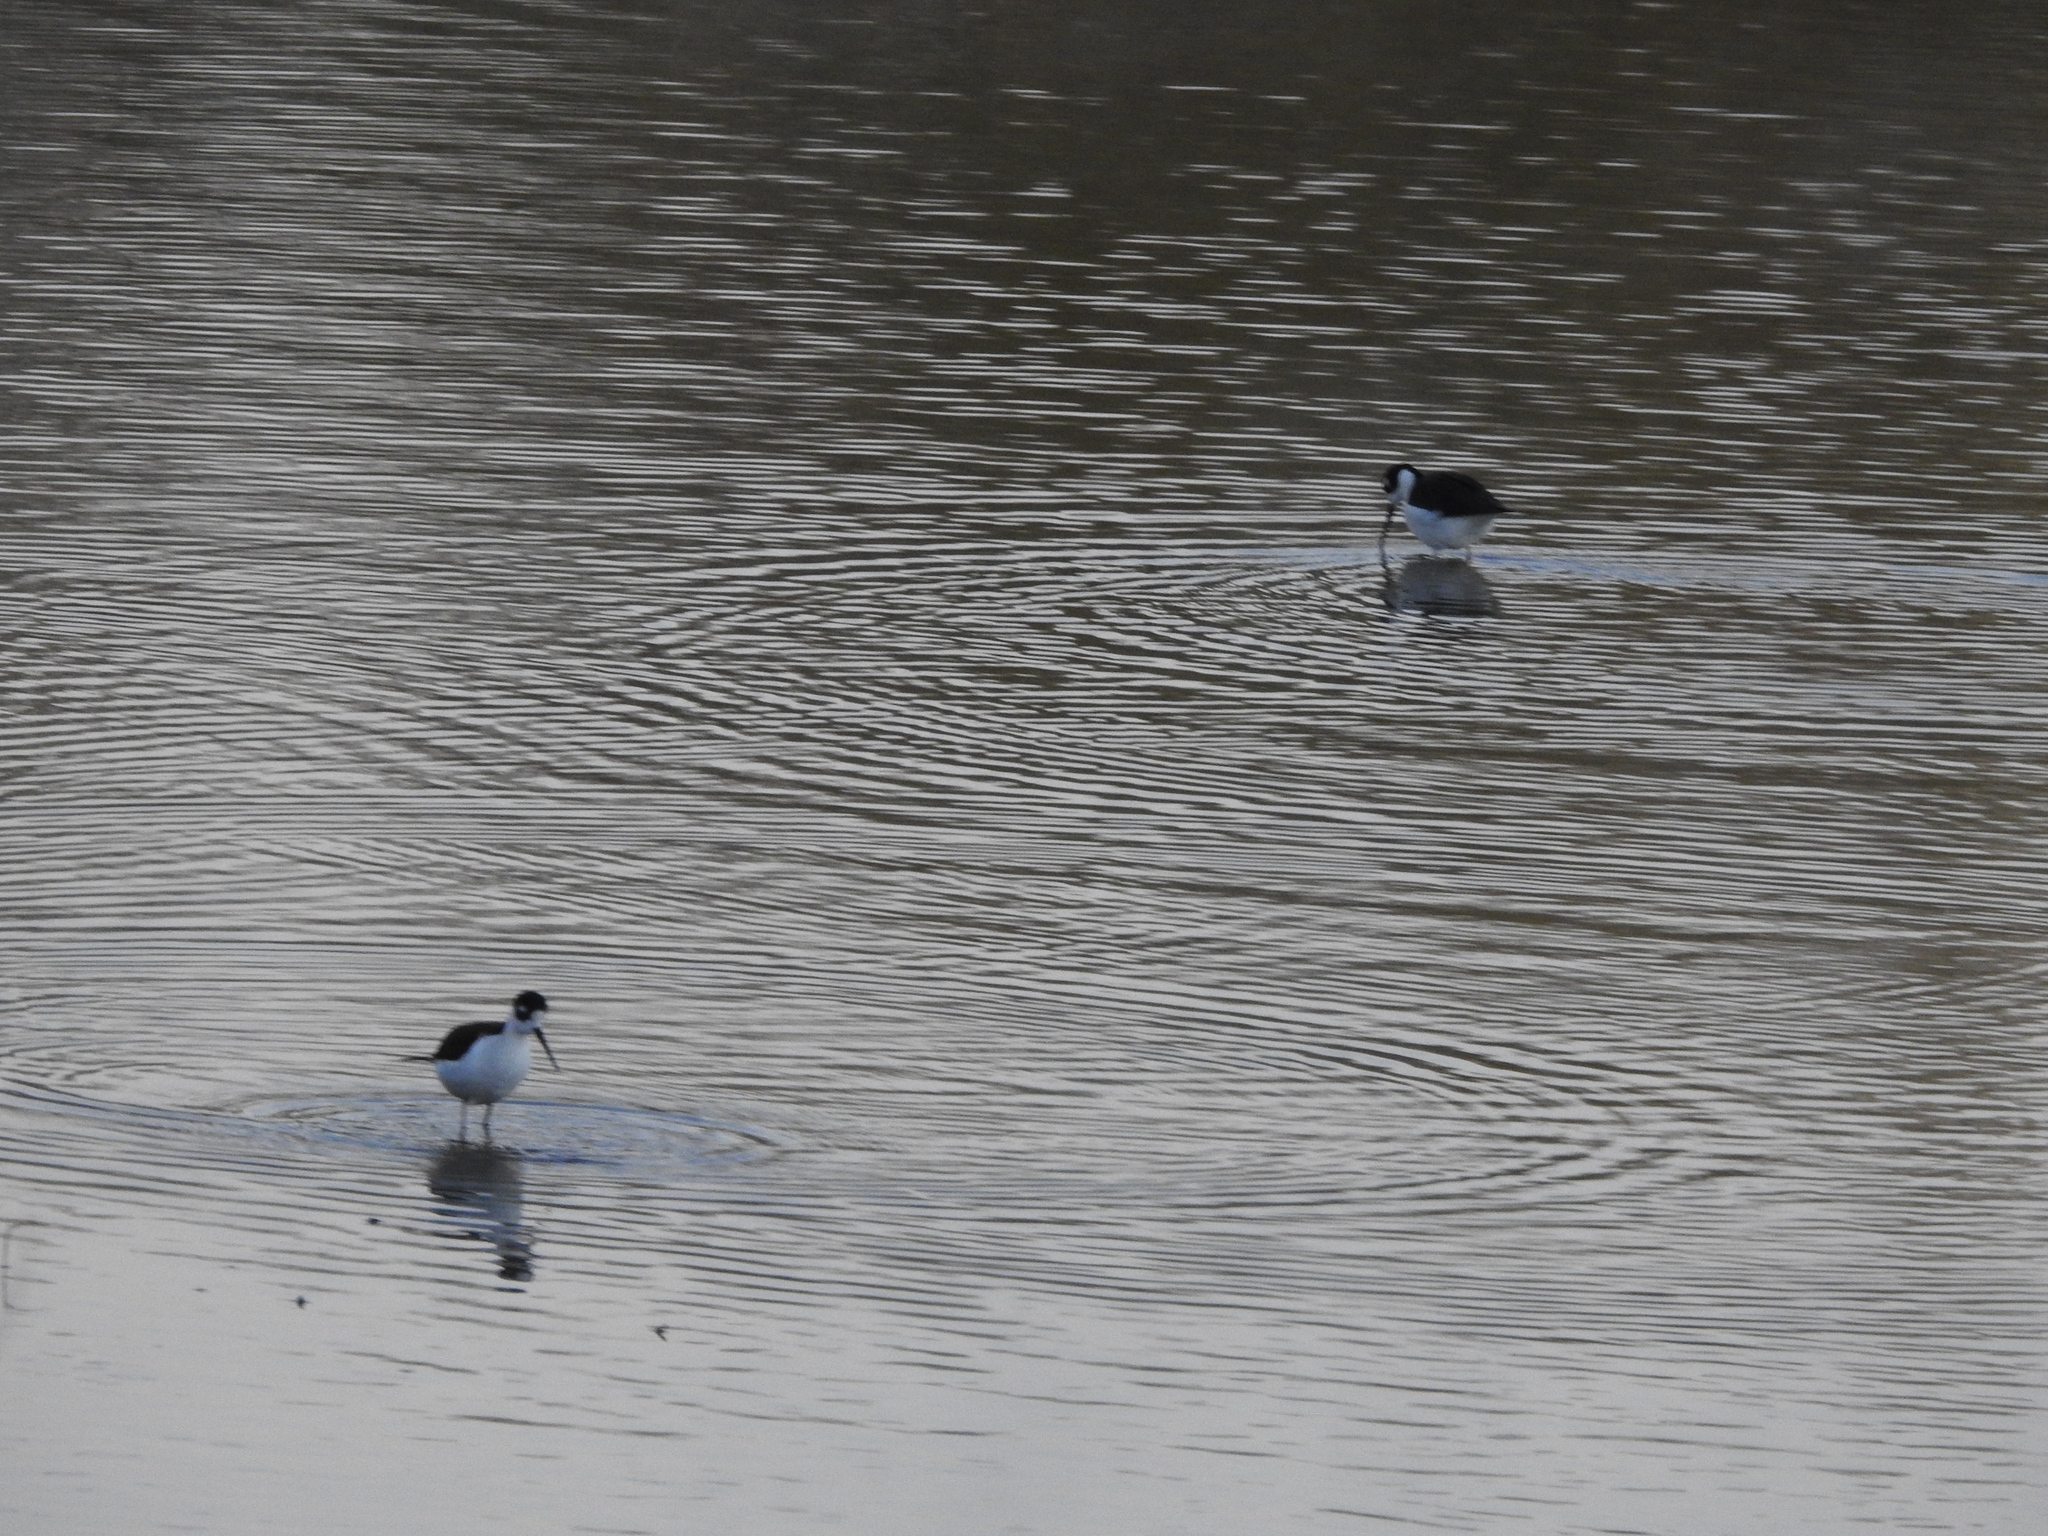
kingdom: Animalia
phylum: Chordata
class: Aves
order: Charadriiformes
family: Recurvirostridae
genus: Himantopus
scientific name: Himantopus mexicanus
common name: Black-necked stilt
